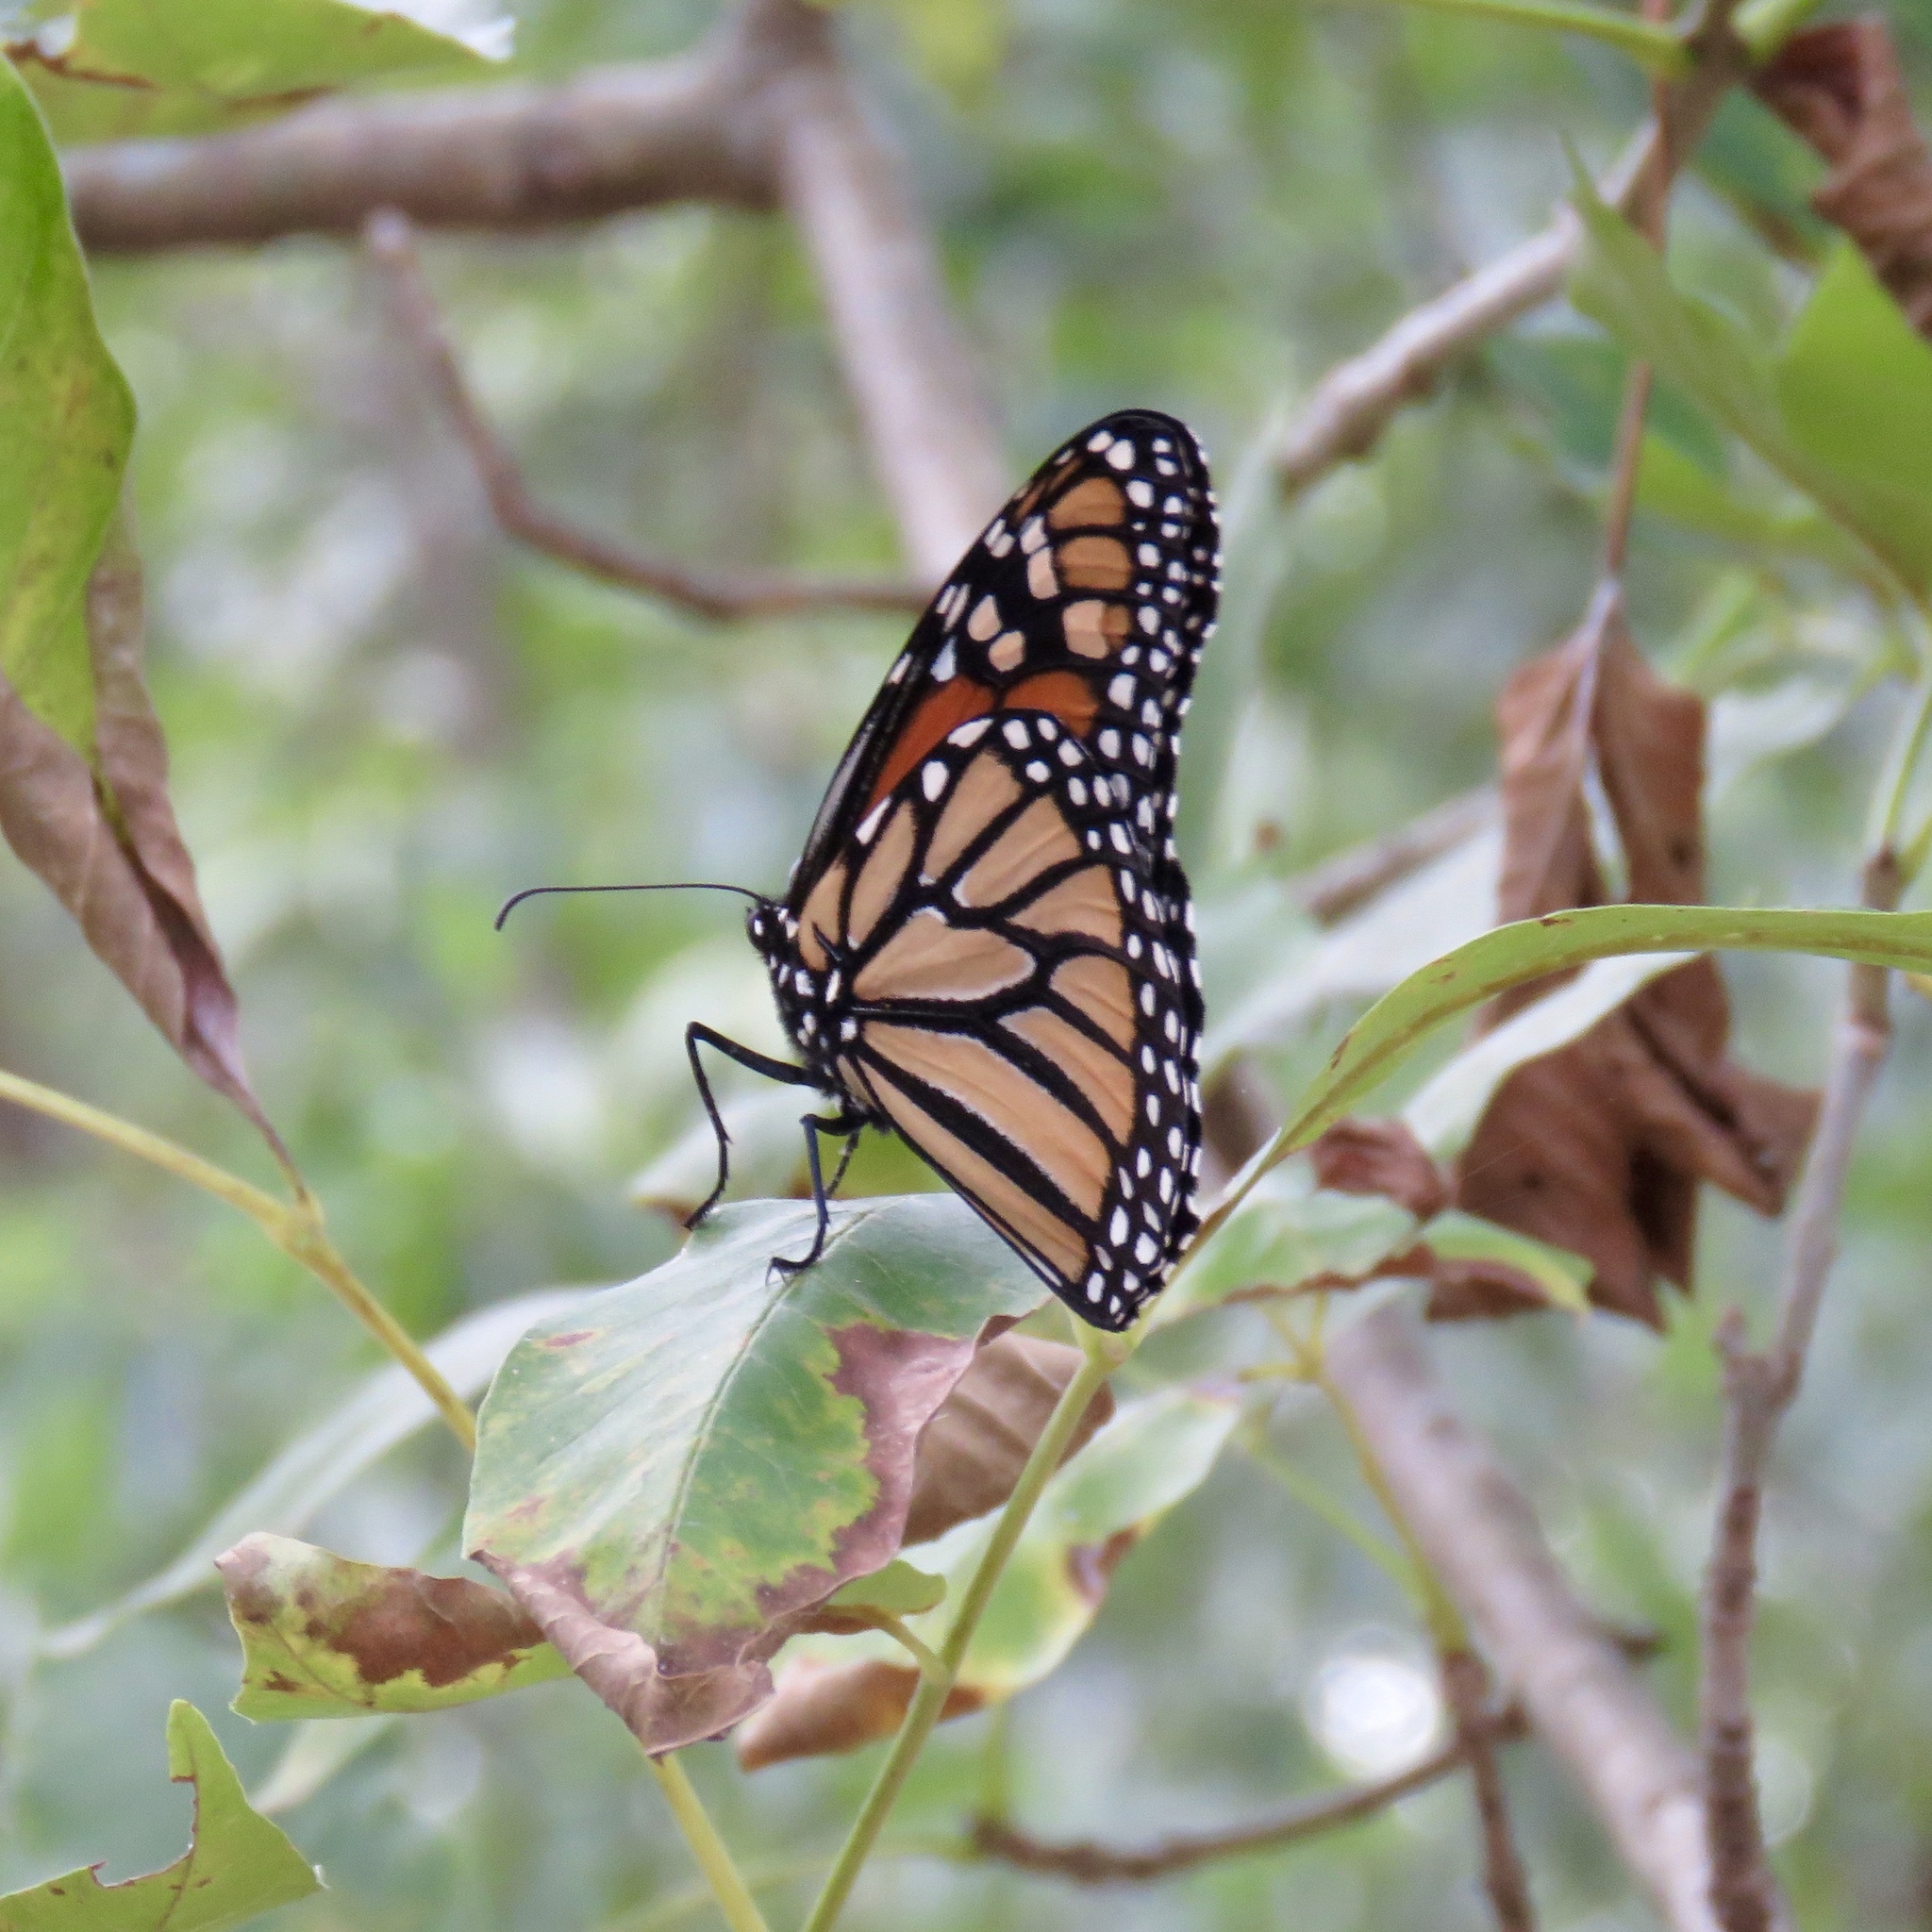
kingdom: Animalia
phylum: Arthropoda
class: Insecta
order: Lepidoptera
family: Nymphalidae
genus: Danaus
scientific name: Danaus plexippus
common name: Monarch
